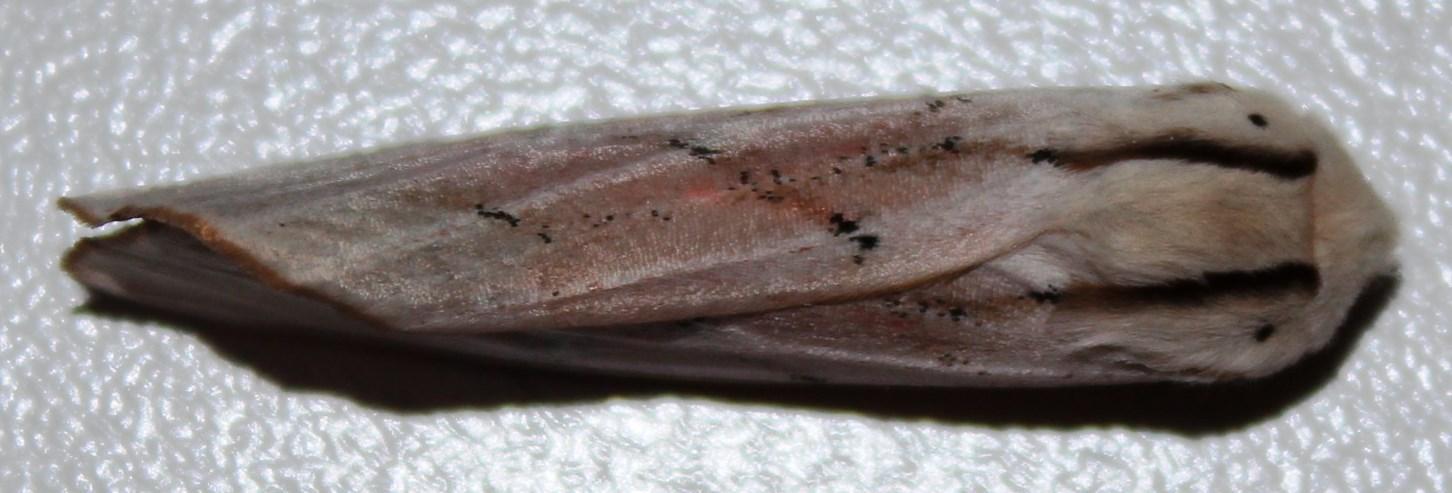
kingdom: Animalia
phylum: Arthropoda
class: Insecta
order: Lepidoptera
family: Erebidae
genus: Rhodogastria
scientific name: Rhodogastria amasis
